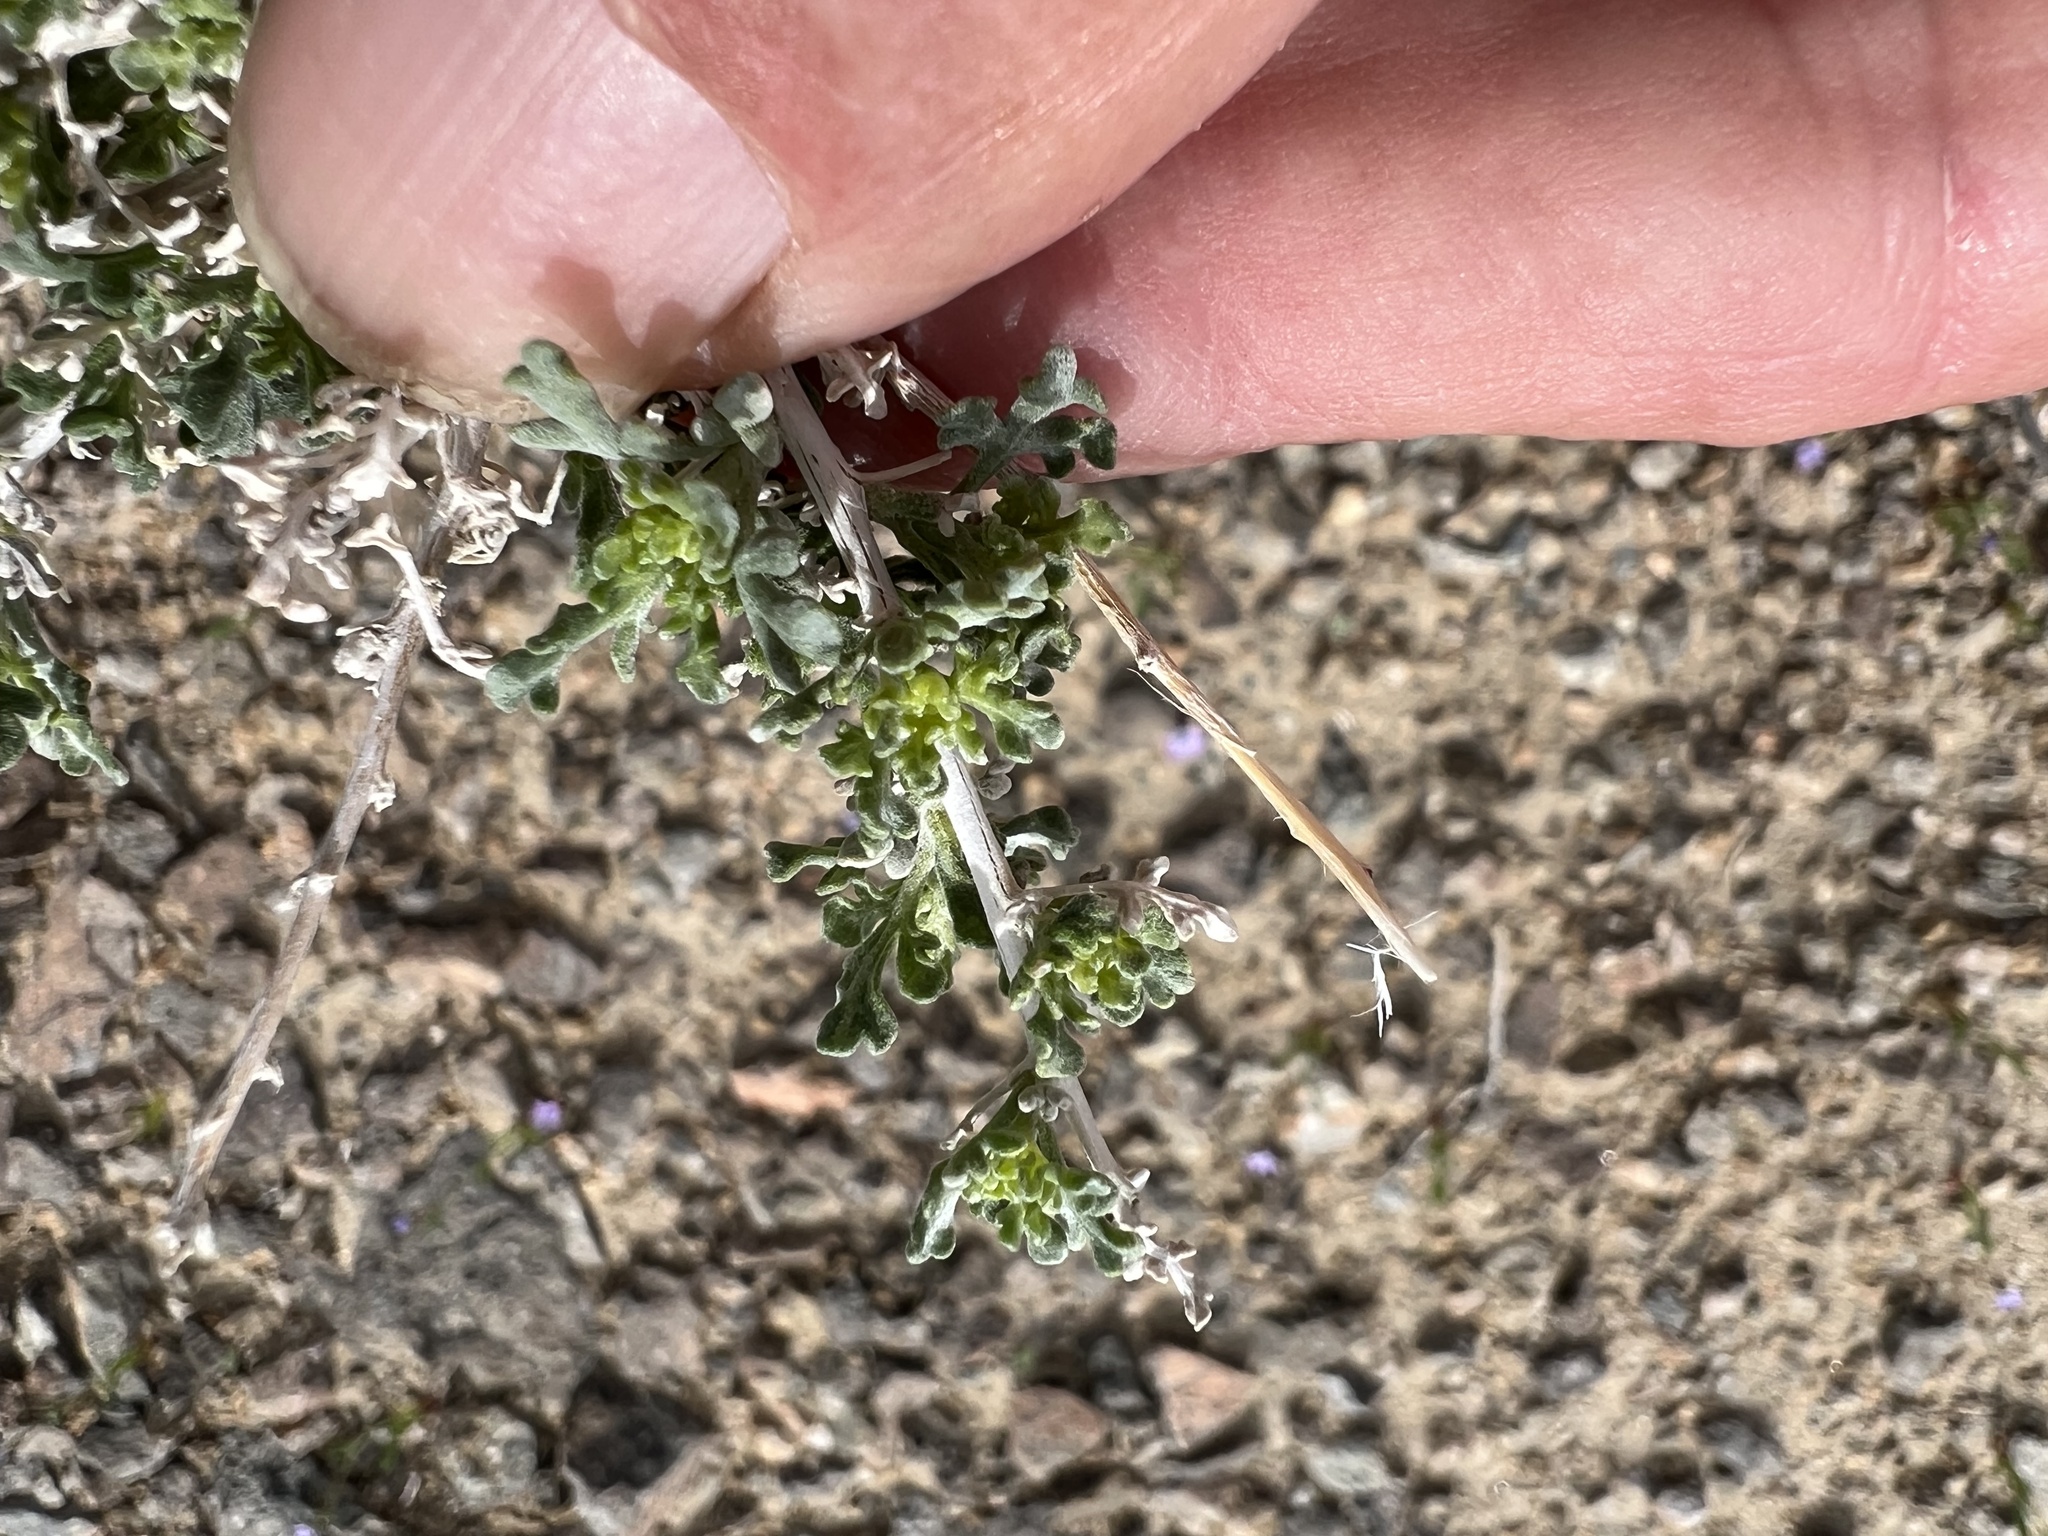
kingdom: Plantae
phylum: Tracheophyta
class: Magnoliopsida
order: Asterales
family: Asteraceae
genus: Ambrosia
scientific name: Ambrosia dumosa
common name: Bur-sage
